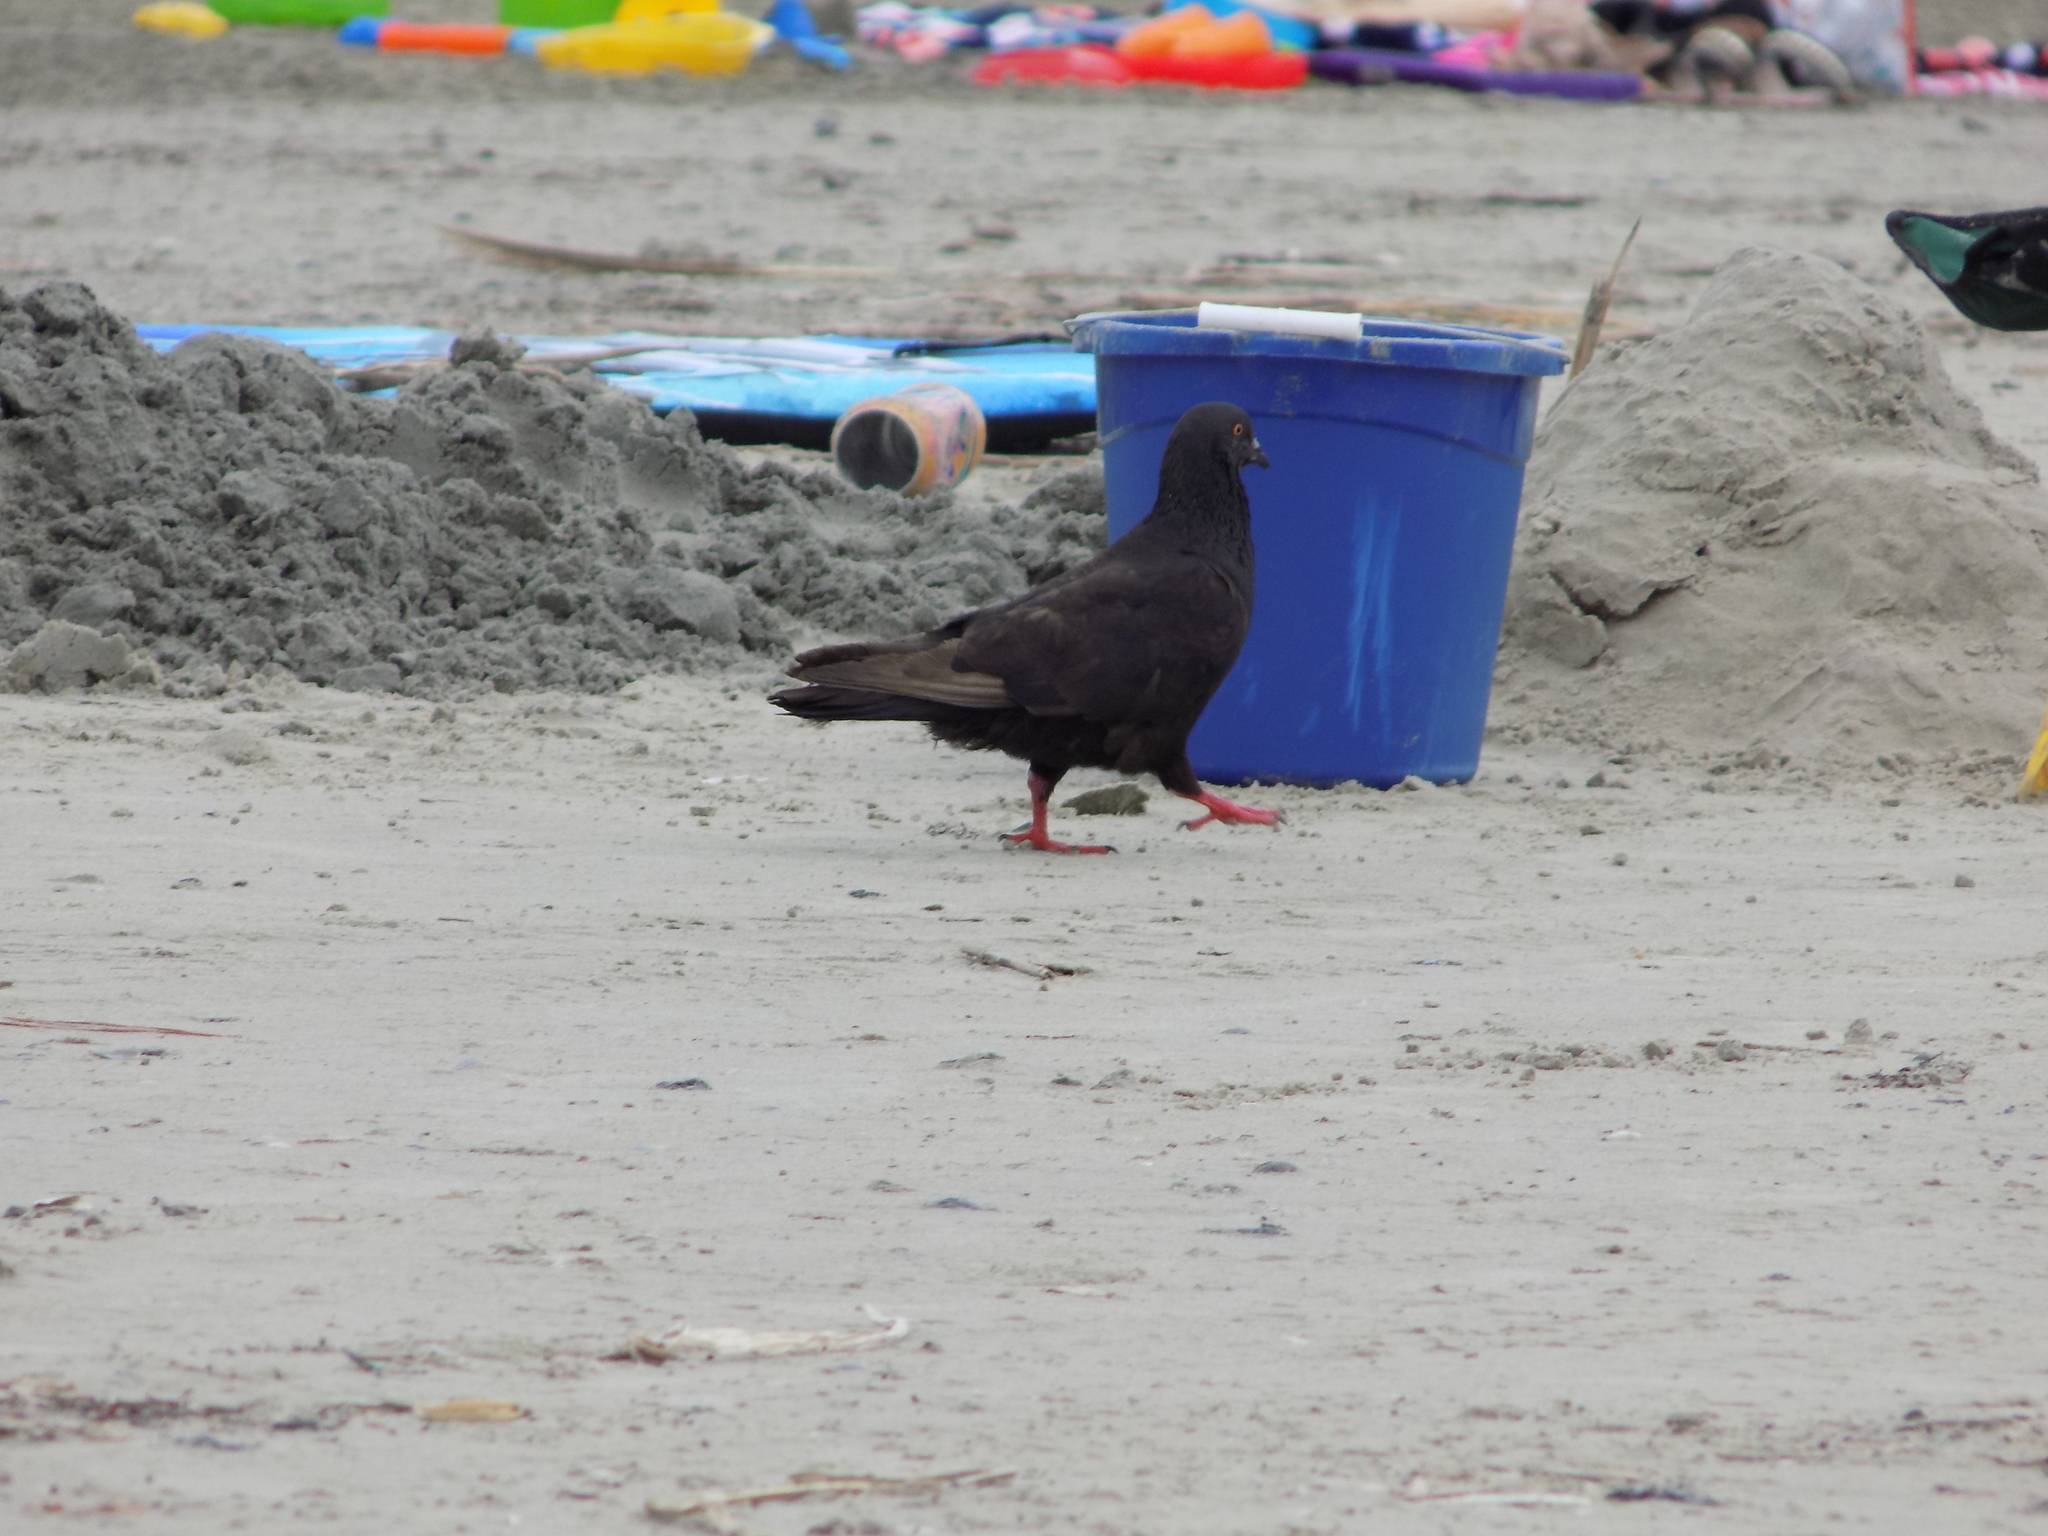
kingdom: Animalia
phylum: Chordata
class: Aves
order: Columbiformes
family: Columbidae
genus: Columba
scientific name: Columba livia
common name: Rock pigeon
